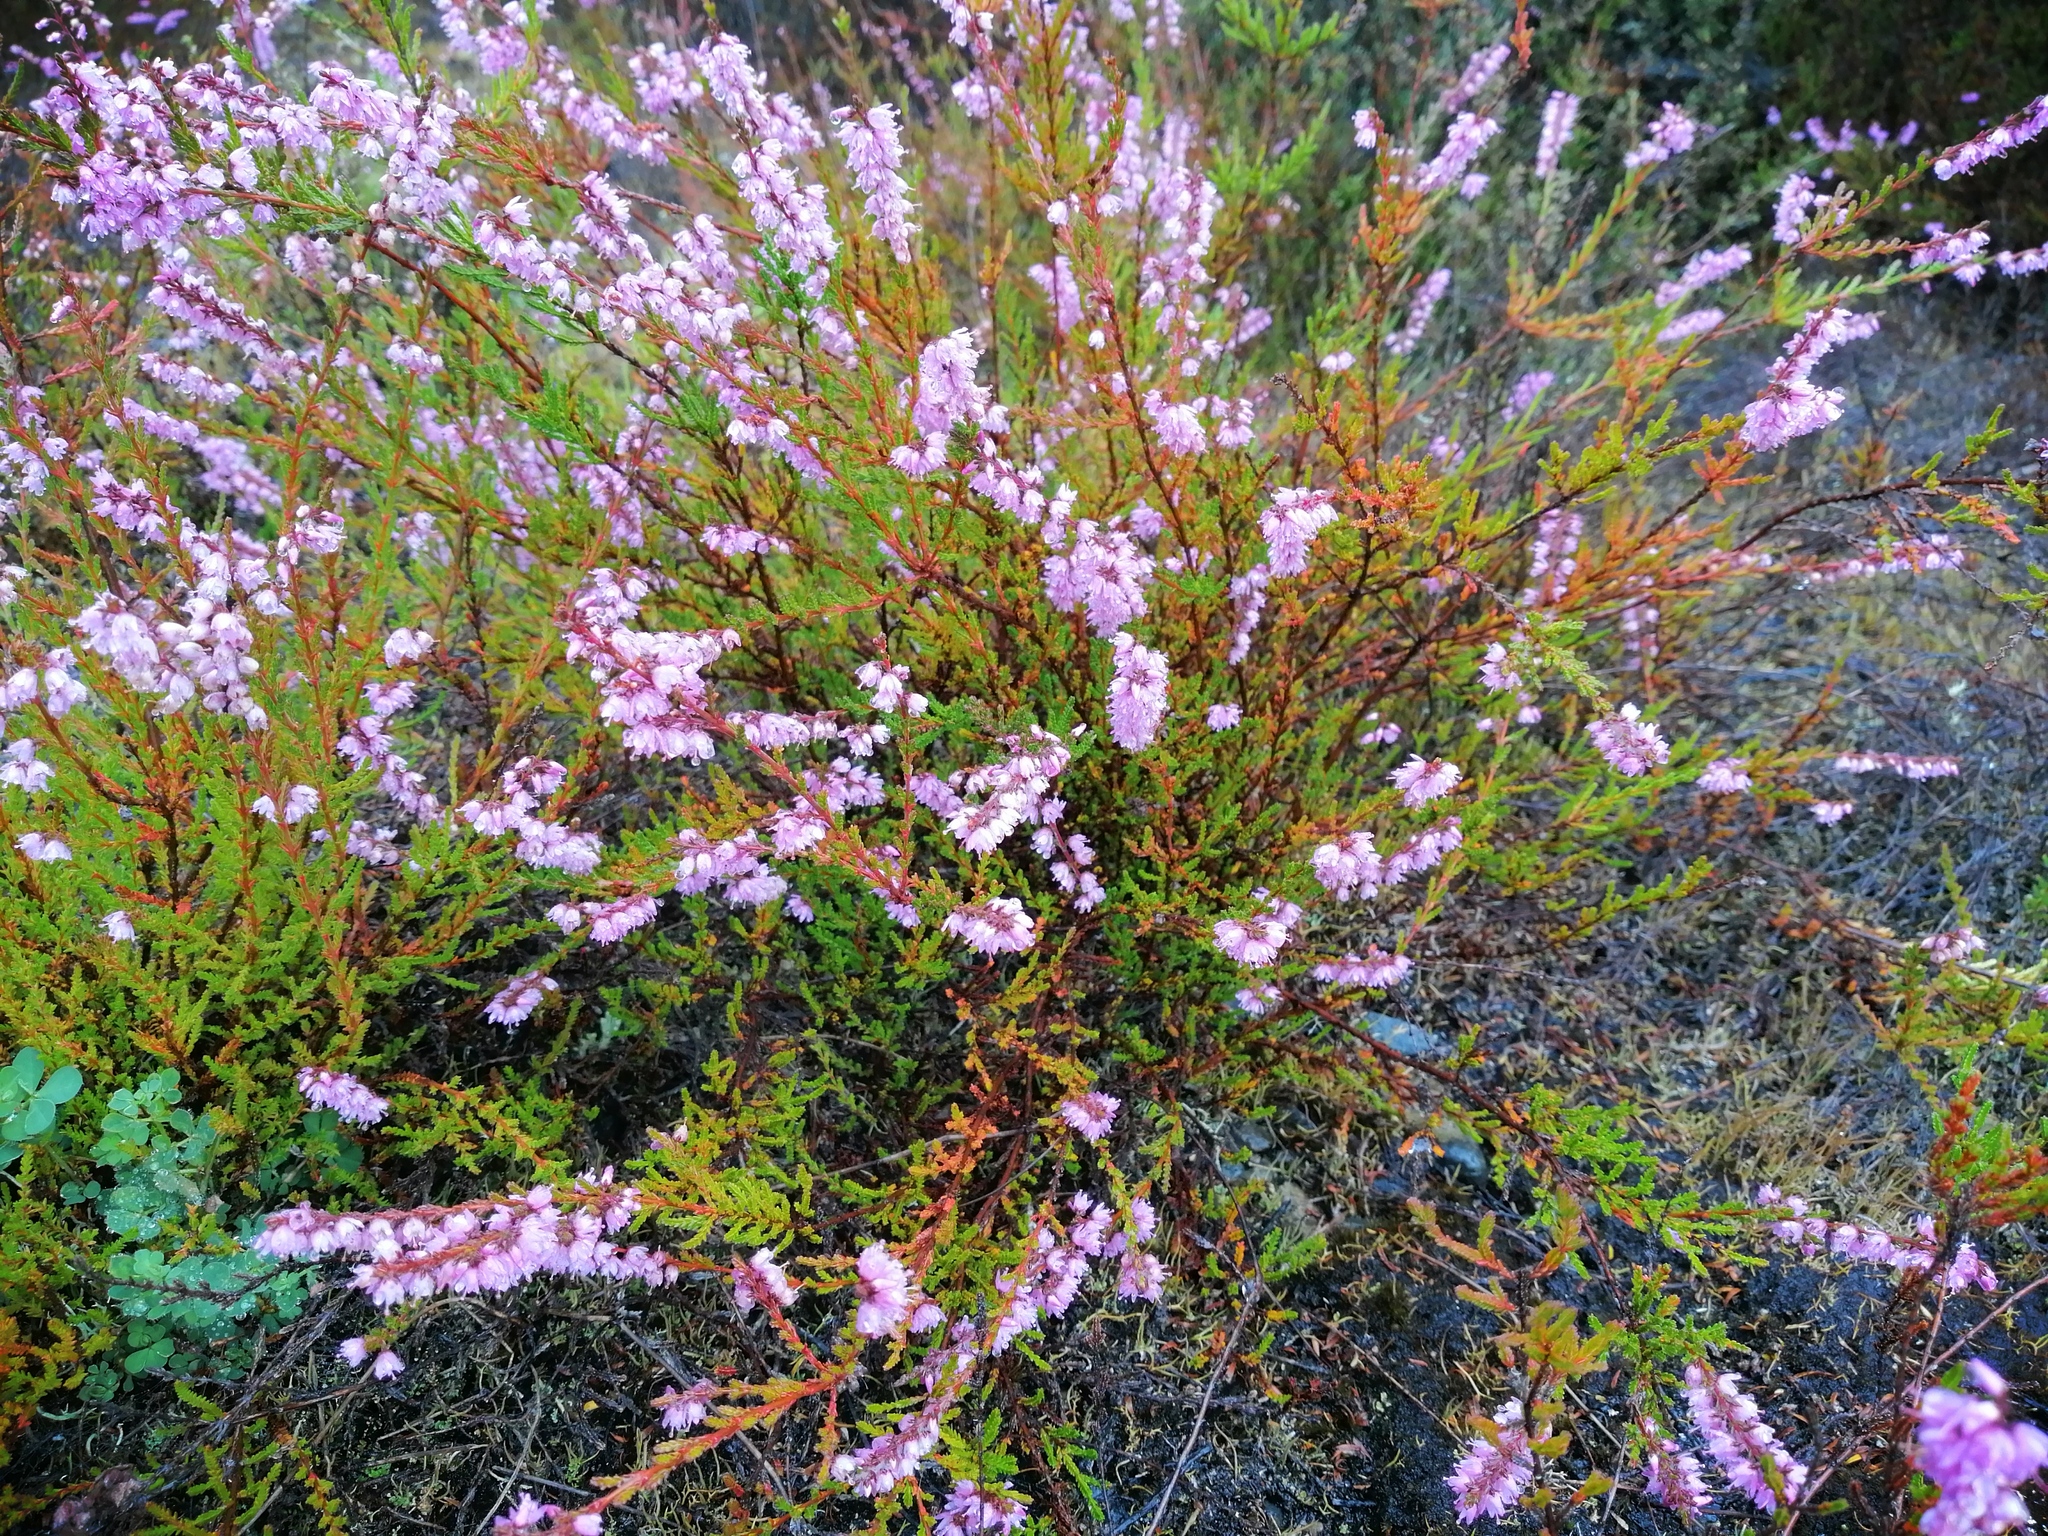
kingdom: Plantae
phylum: Tracheophyta
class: Magnoliopsida
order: Ericales
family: Ericaceae
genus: Calluna
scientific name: Calluna vulgaris
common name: Heather
